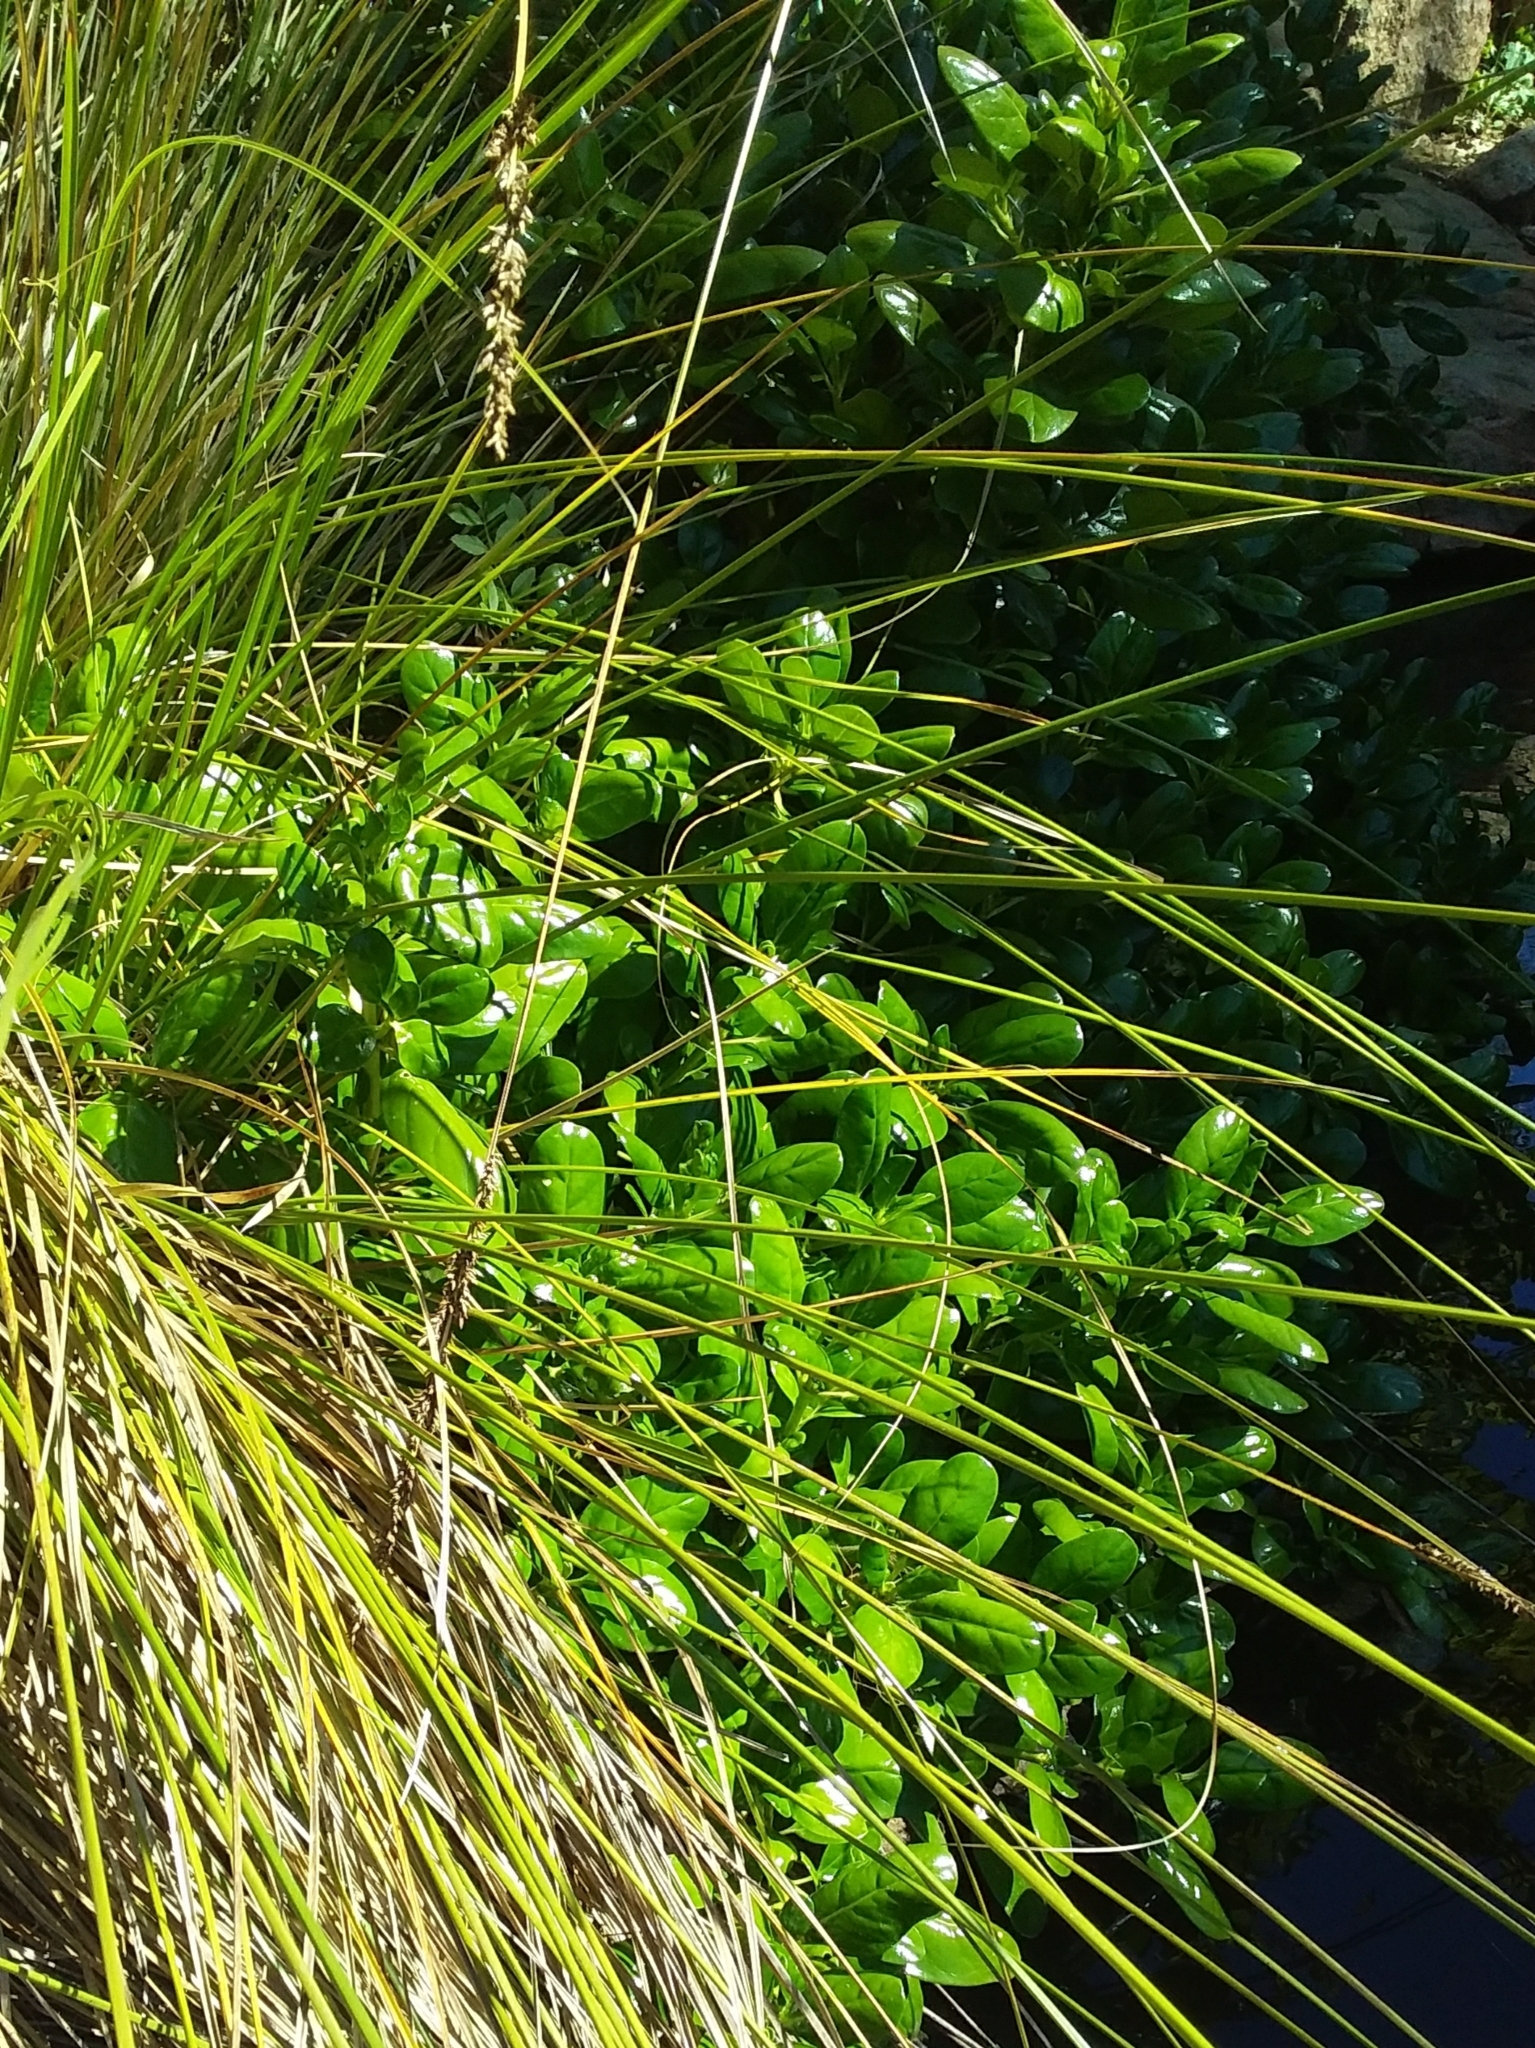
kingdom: Plantae
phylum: Tracheophyta
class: Magnoliopsida
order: Gentianales
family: Rubiaceae
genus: Coprosma
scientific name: Coprosma repens
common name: Tree bedstraw
